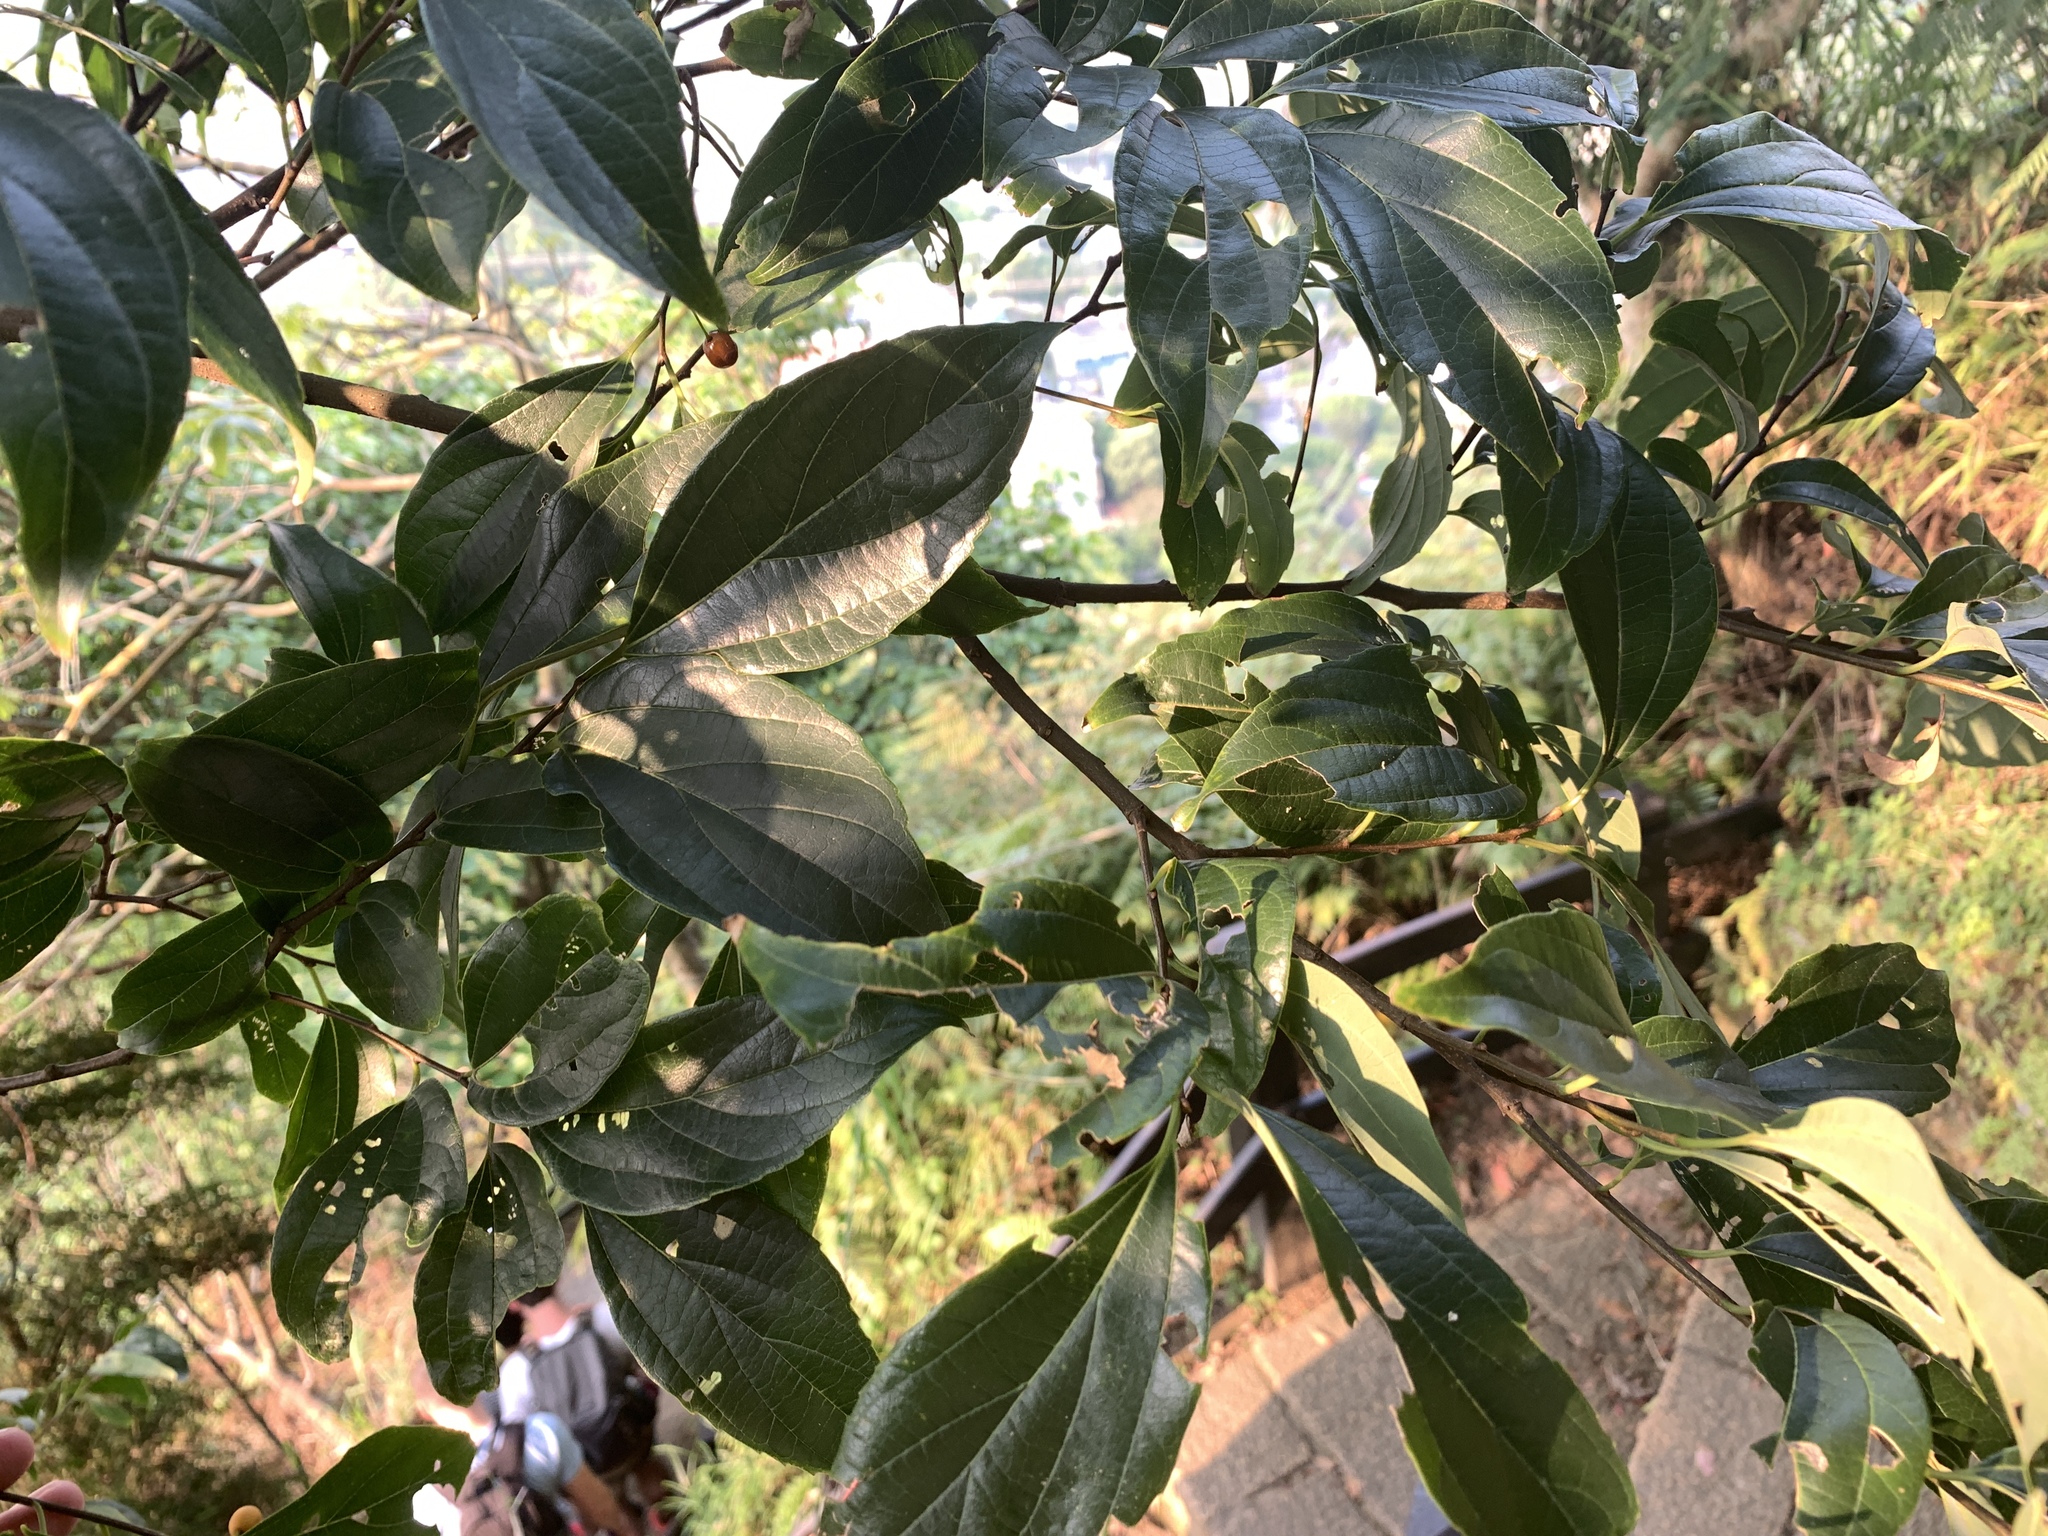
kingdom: Plantae
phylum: Tracheophyta
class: Magnoliopsida
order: Rosales
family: Cannabaceae
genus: Celtis
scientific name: Celtis tetrandra
